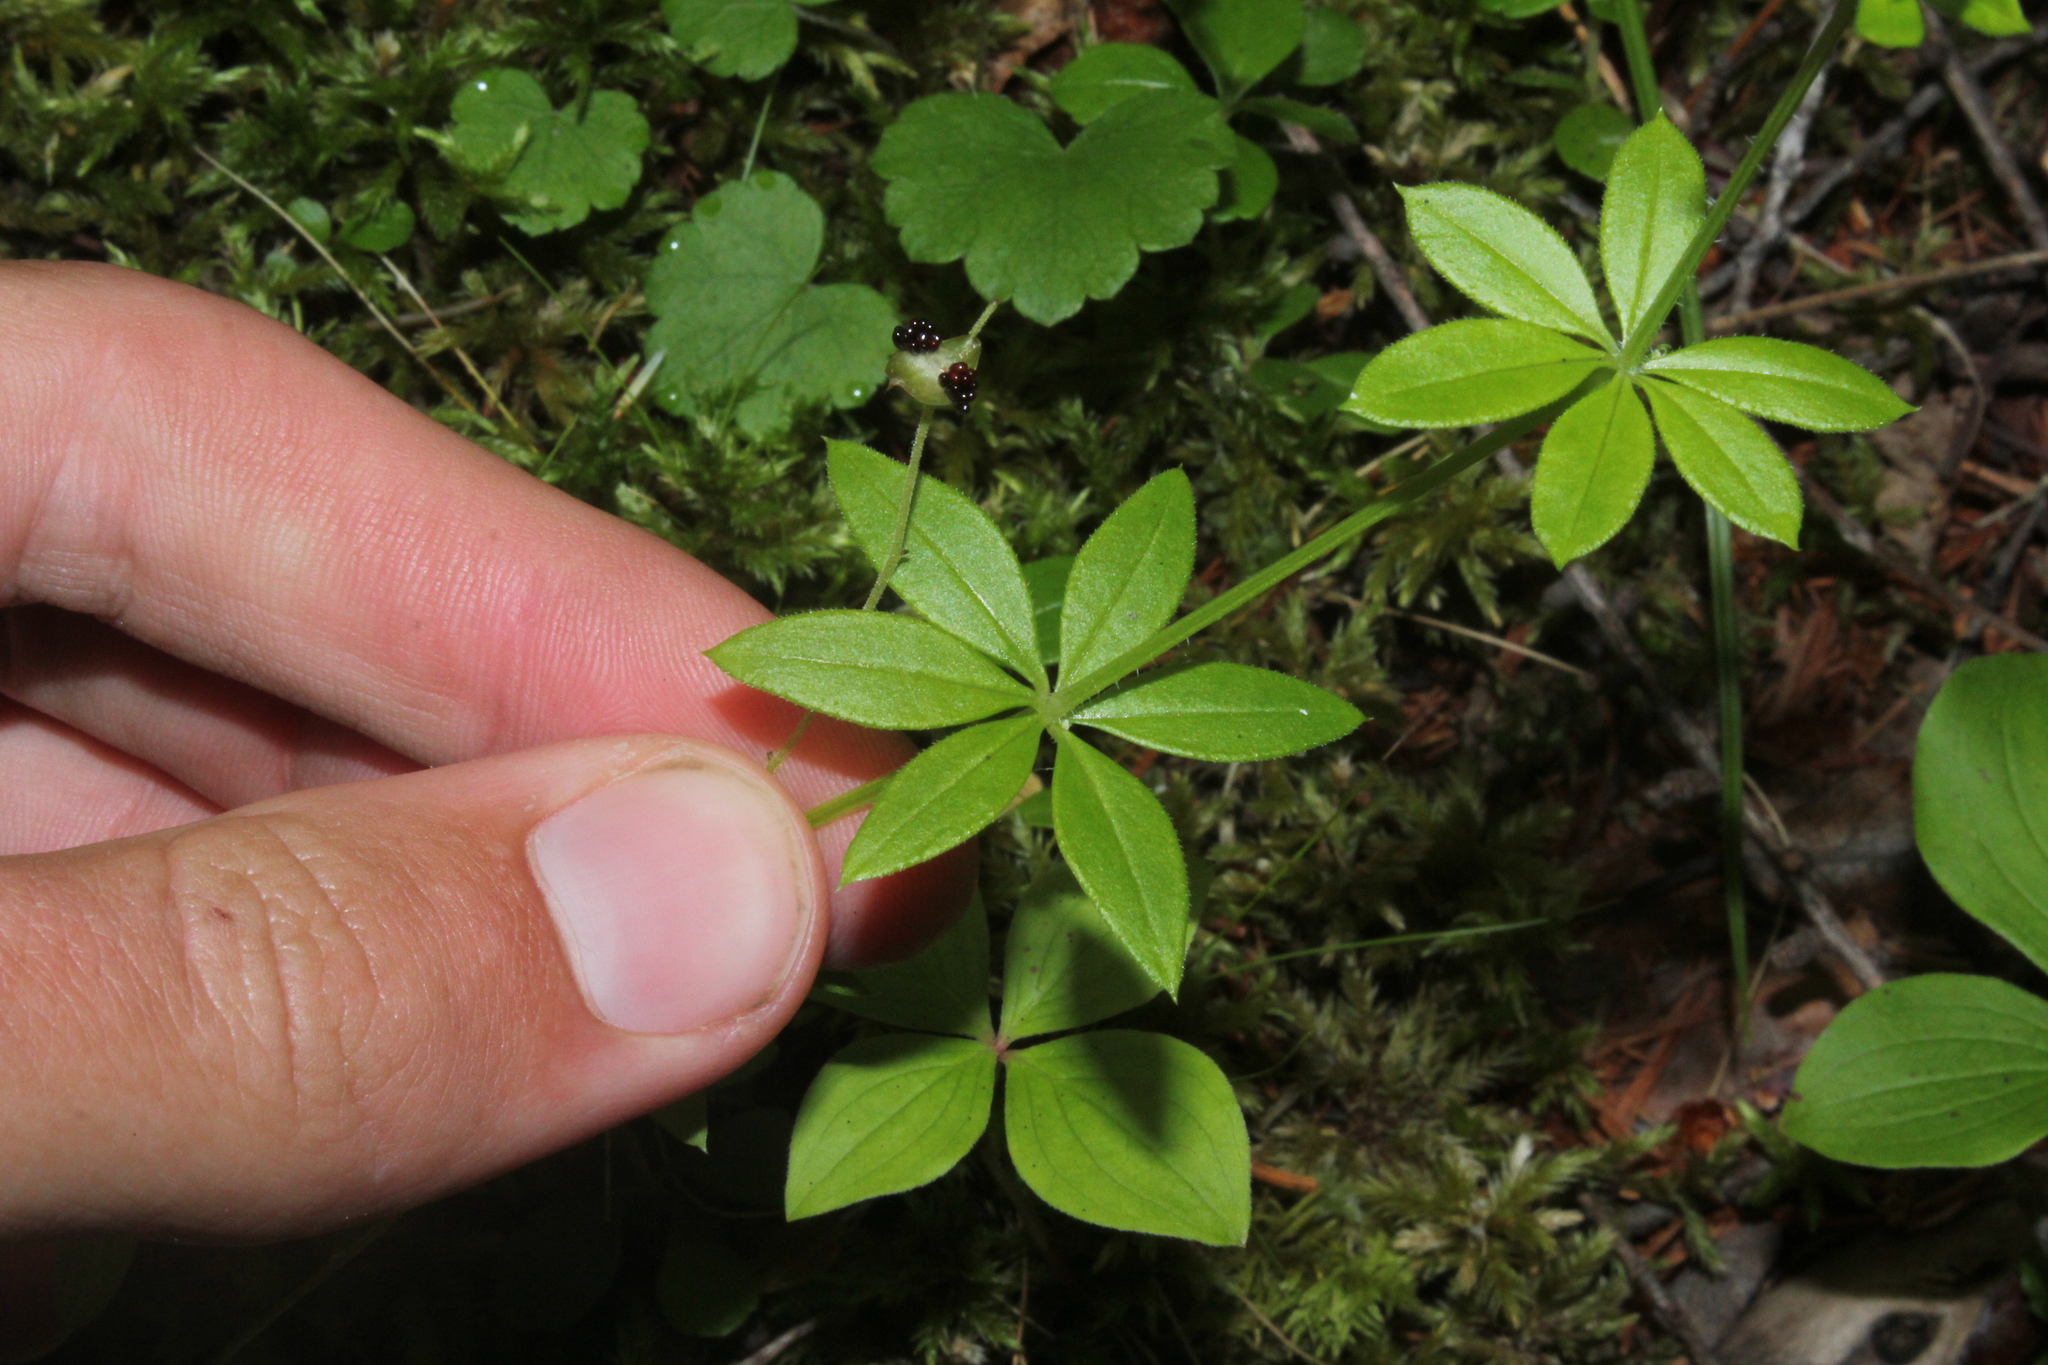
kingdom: Plantae
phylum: Tracheophyta
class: Magnoliopsida
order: Gentianales
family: Rubiaceae
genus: Galium
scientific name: Galium triflorum
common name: Fragrant bedstraw
